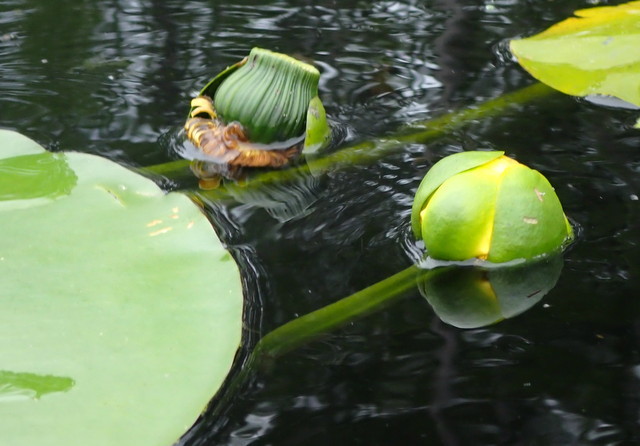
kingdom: Plantae
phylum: Tracheophyta
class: Magnoliopsida
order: Nymphaeales
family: Nymphaeaceae
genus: Nuphar
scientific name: Nuphar advena
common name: Spatter-dock
